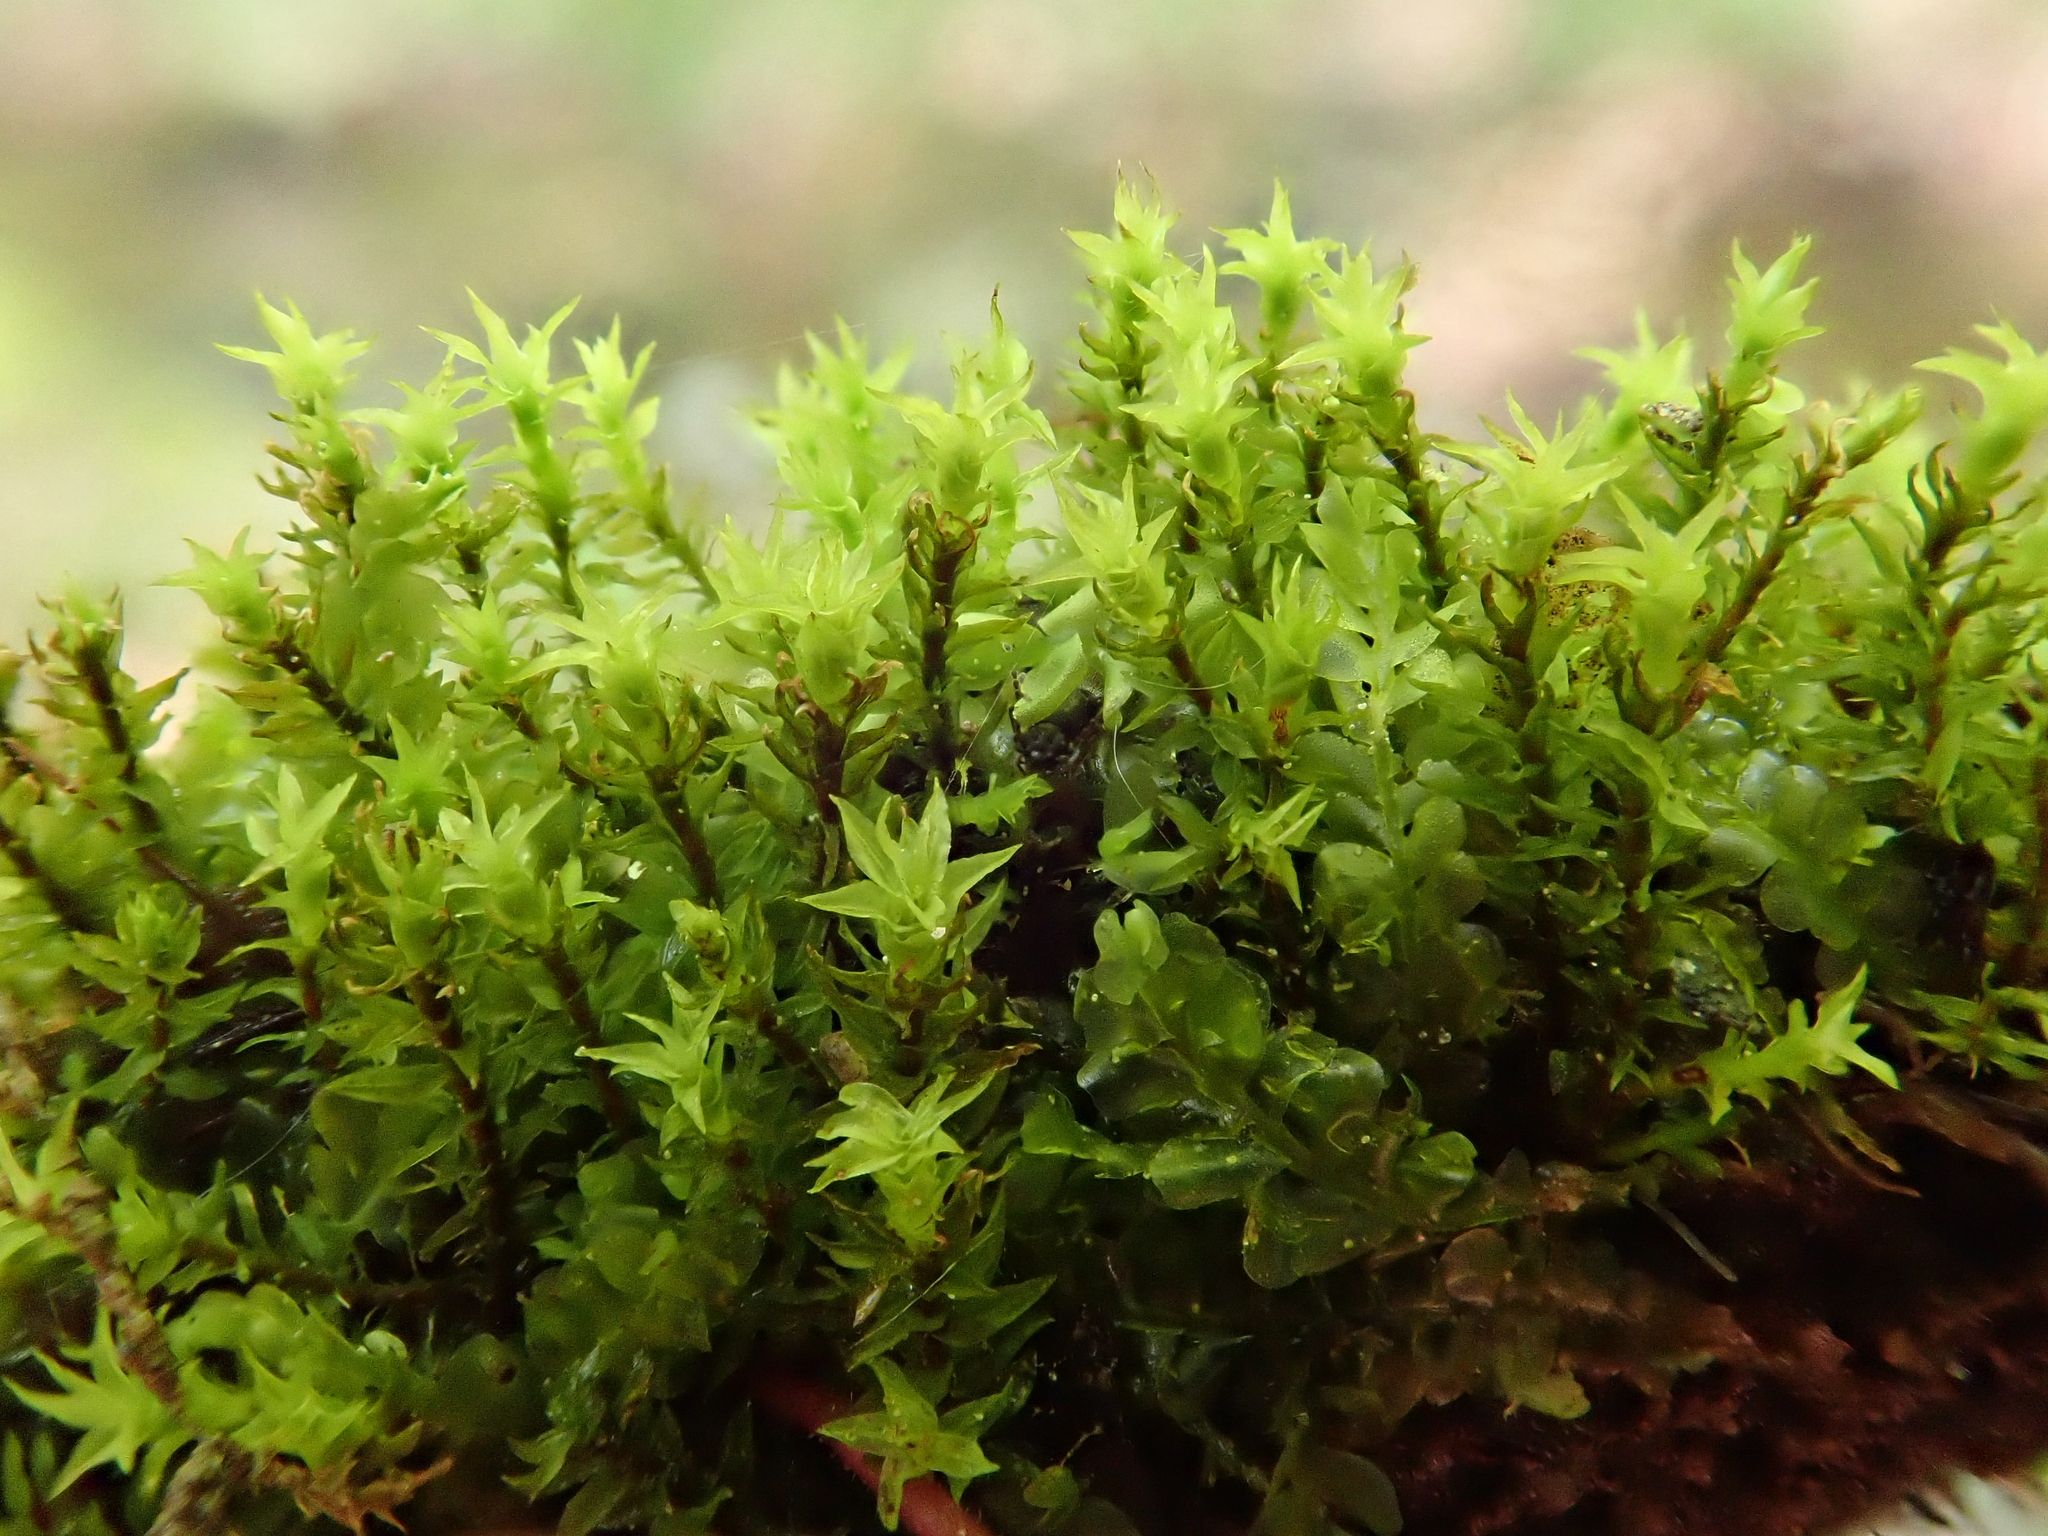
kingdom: Plantae
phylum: Bryophyta
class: Bryopsida
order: Dicranales
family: Aongstroemiaceae
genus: Dichodontium
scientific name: Dichodontium pellucidum
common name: Transparent fork moss
